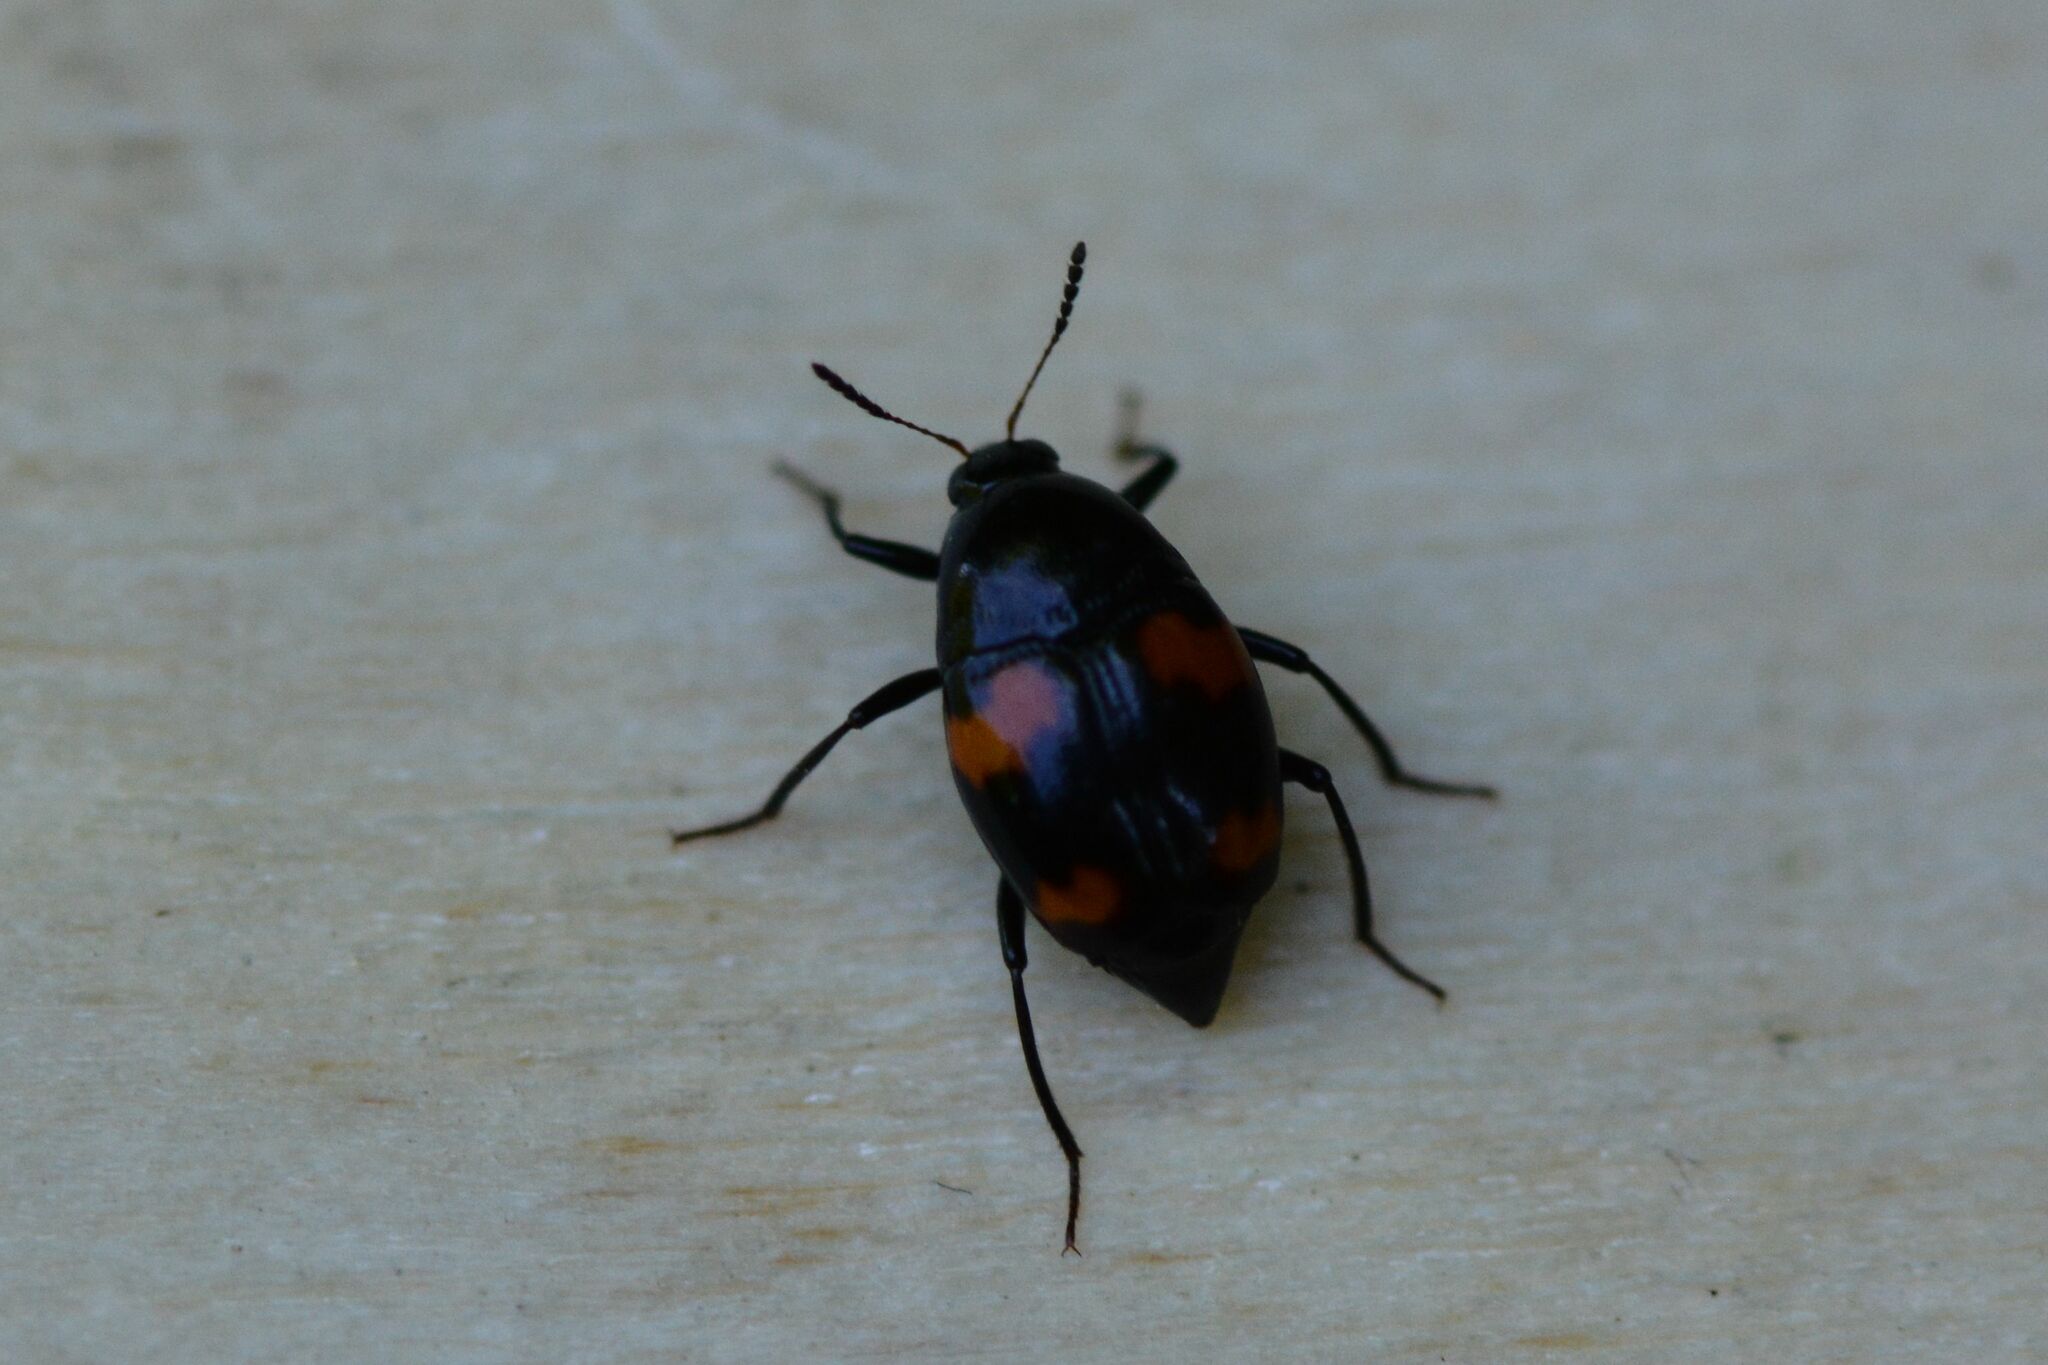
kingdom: Animalia
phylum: Arthropoda
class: Insecta
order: Coleoptera
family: Staphylinidae
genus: Scaphidium
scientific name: Scaphidium quadrimaculatum
